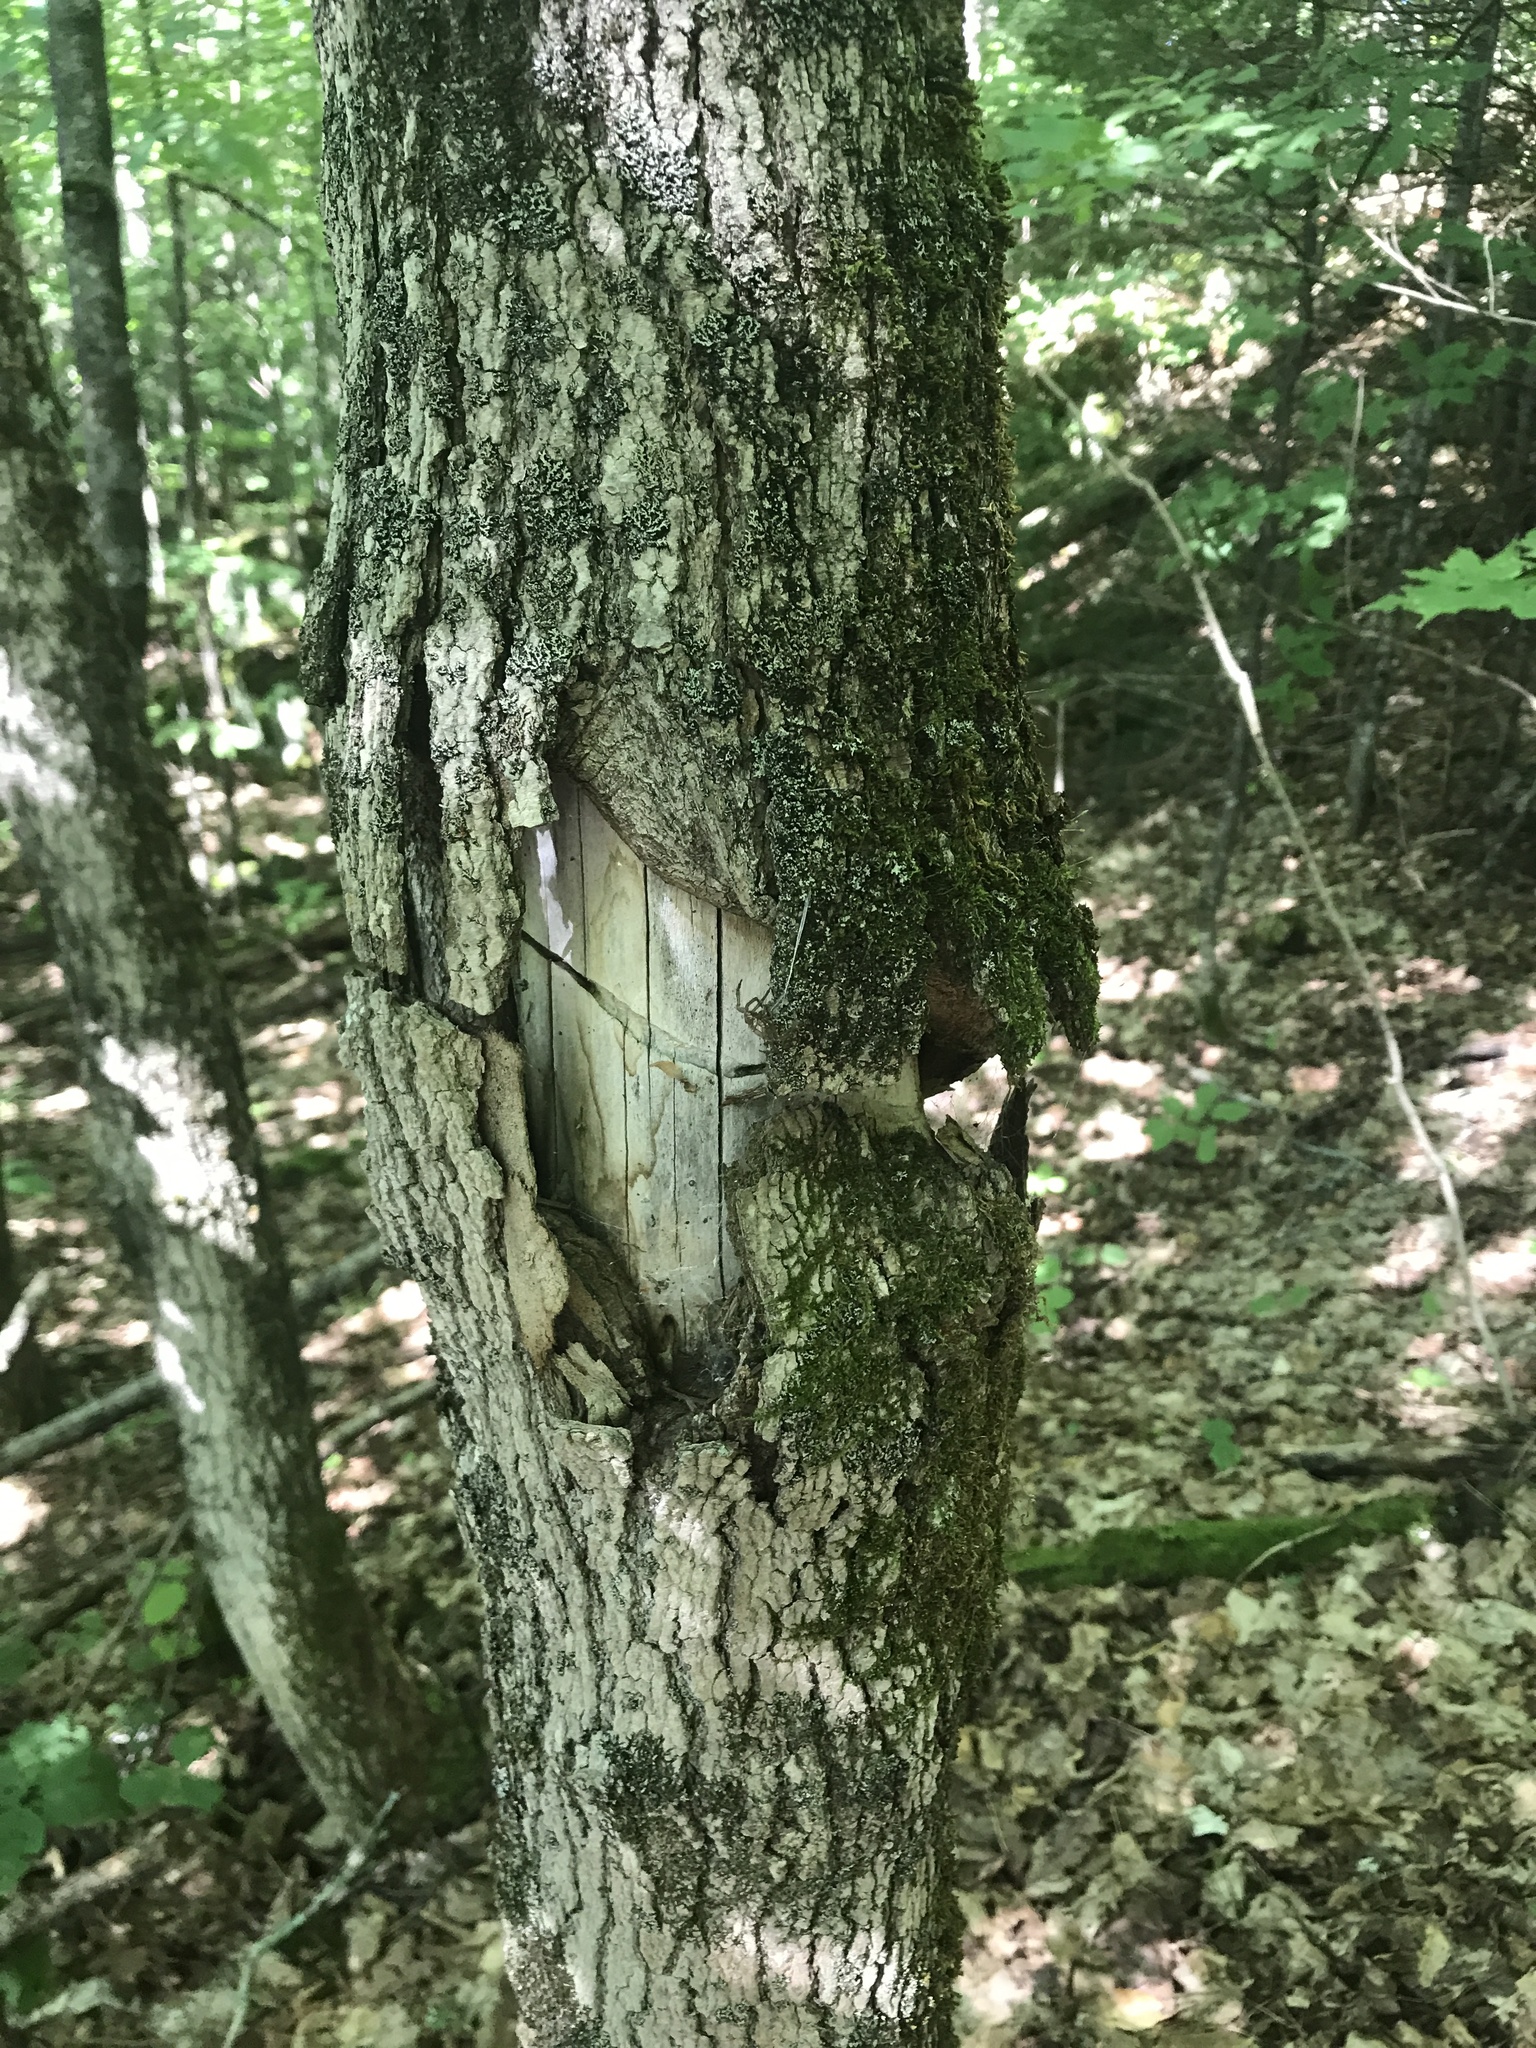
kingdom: Animalia
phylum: Arthropoda
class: Insecta
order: Coleoptera
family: Cerambycidae
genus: Glycobius
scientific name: Glycobius speciosus
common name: Sugar maple borer
